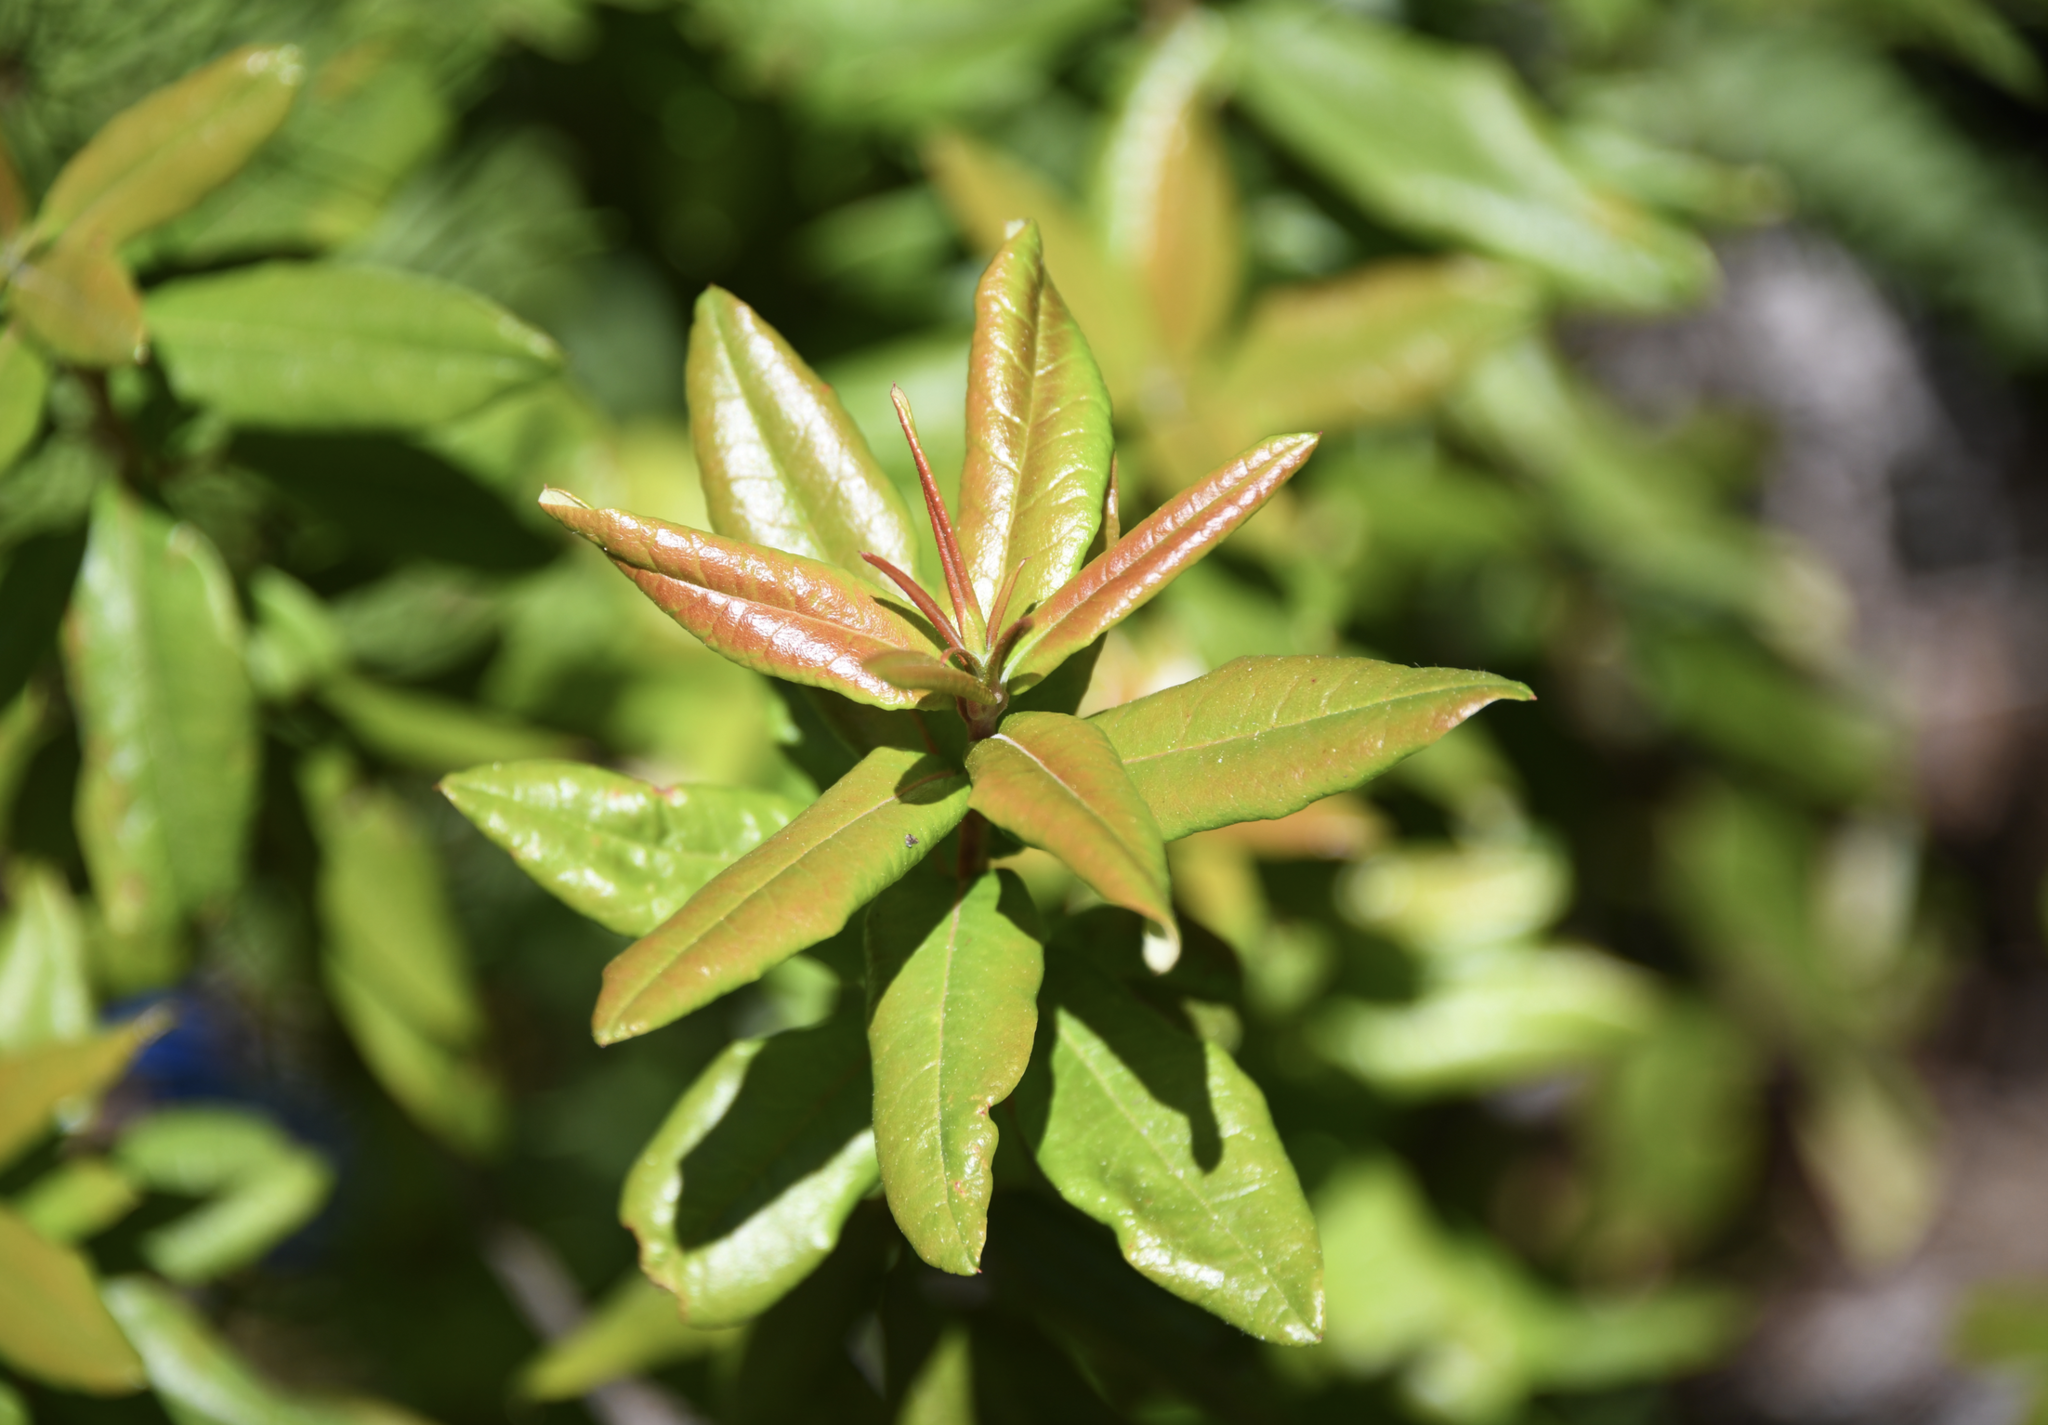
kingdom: Plantae
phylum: Tracheophyta
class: Magnoliopsida
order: Ericales
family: Ericaceae
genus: Rhododendron
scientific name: Rhododendron columbianum
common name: Western labrador tea
